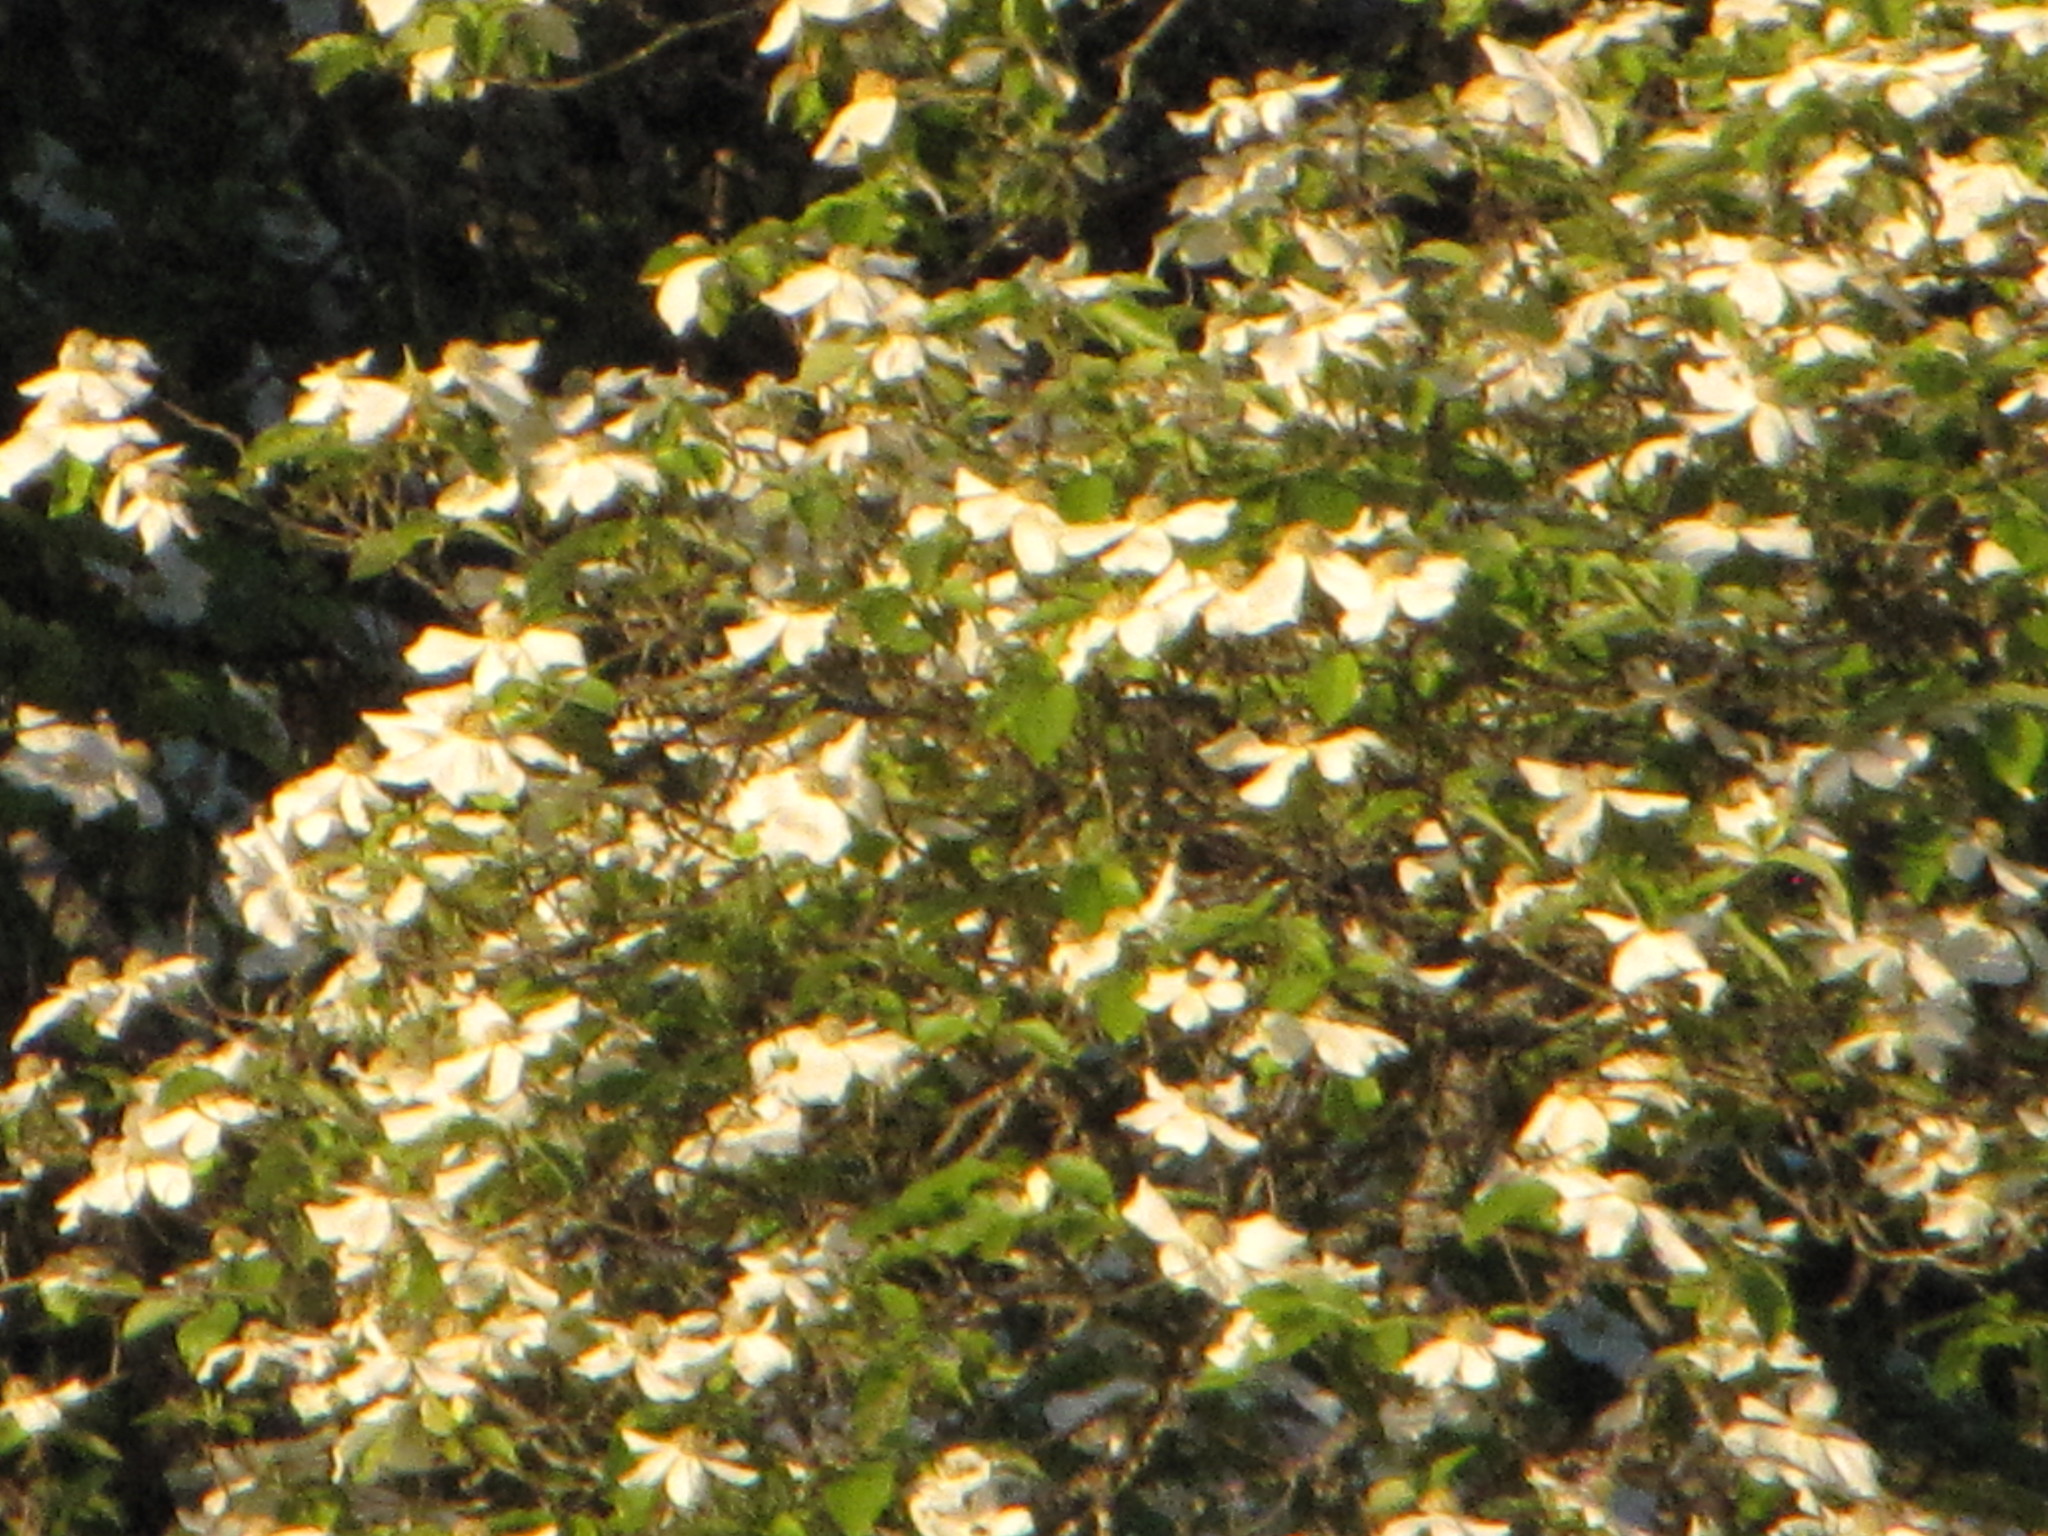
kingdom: Plantae
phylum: Tracheophyta
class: Magnoliopsida
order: Cornales
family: Cornaceae
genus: Cornus
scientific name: Cornus nuttallii
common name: Pacific dogwood
